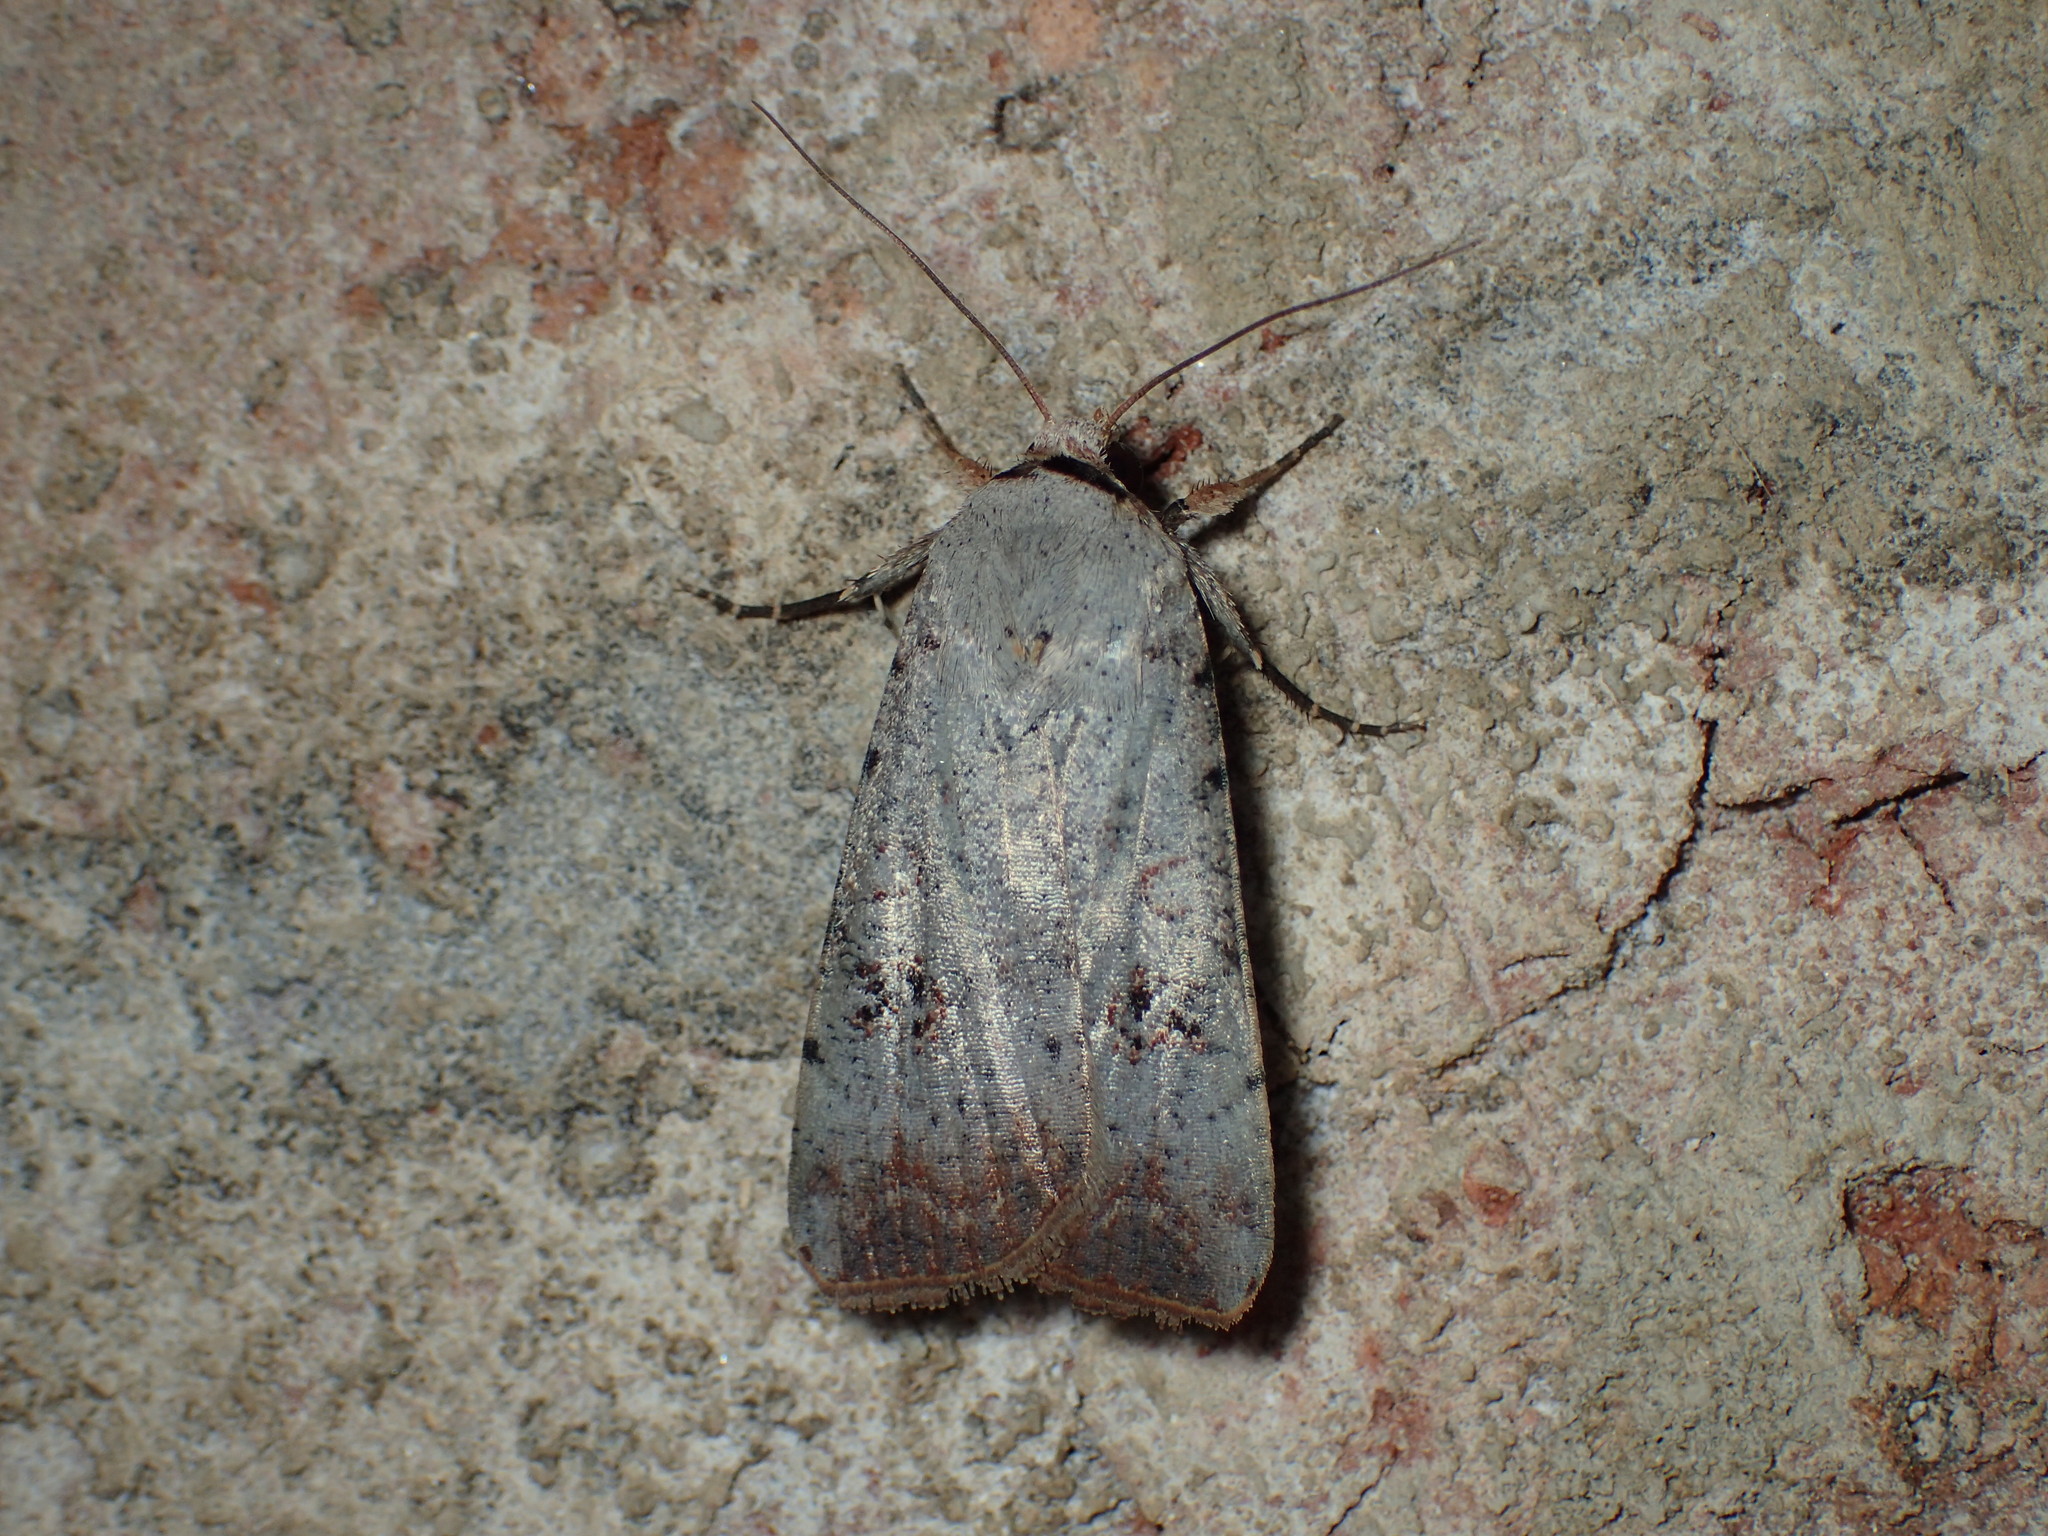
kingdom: Animalia
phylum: Arthropoda
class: Insecta
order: Lepidoptera
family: Noctuidae
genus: Anicla
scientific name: Anicla infecta
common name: Green cutworm
